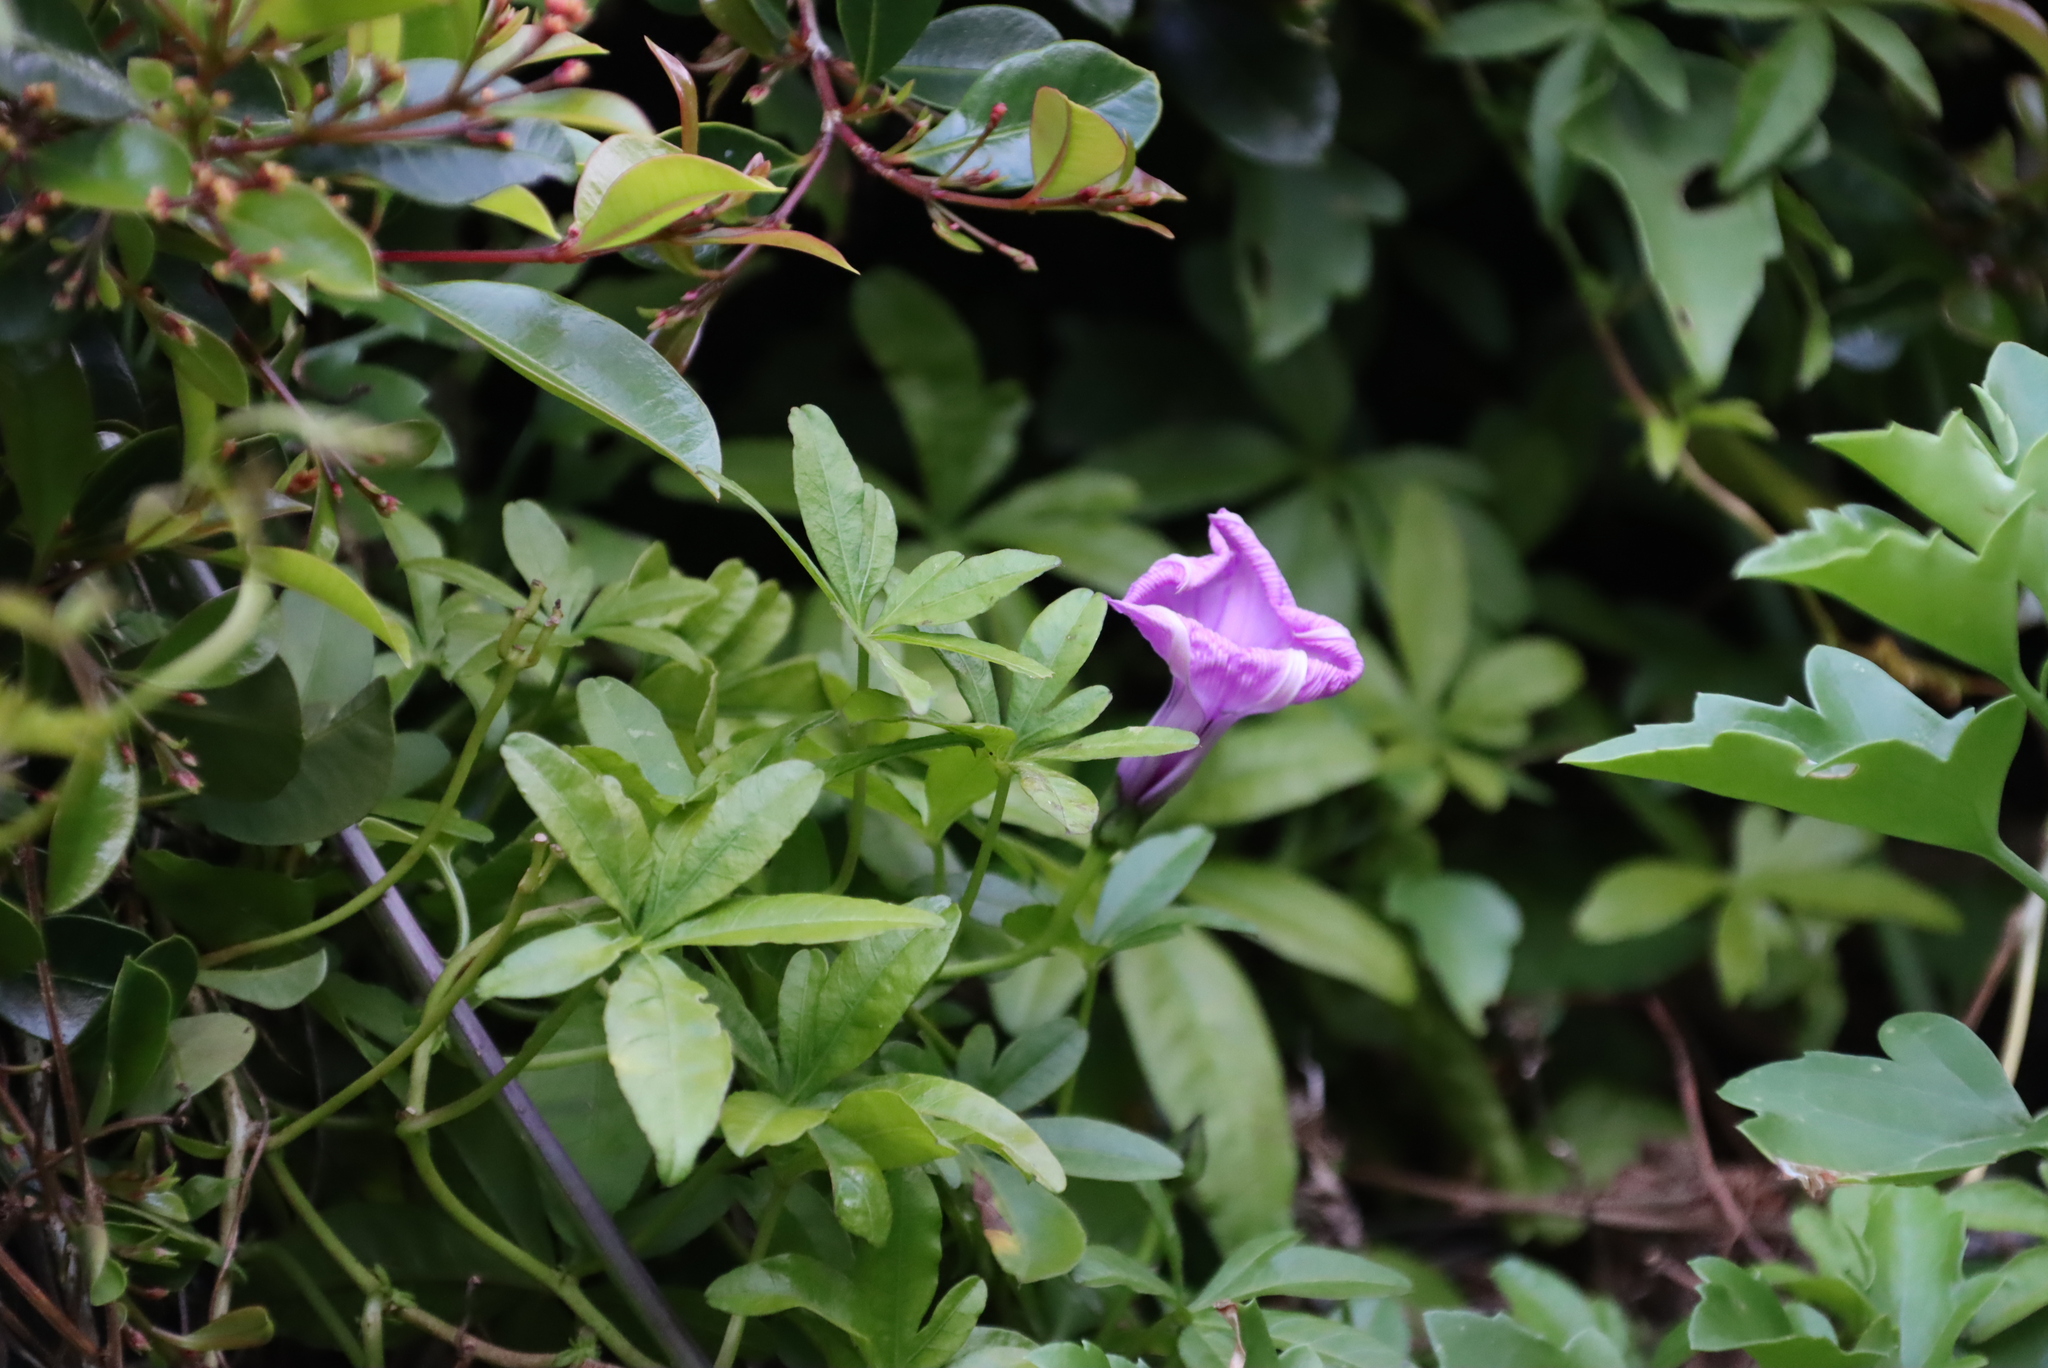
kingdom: Plantae
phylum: Tracheophyta
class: Magnoliopsida
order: Solanales
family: Convolvulaceae
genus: Ipomoea
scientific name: Ipomoea cairica
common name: Mile a minute vine
